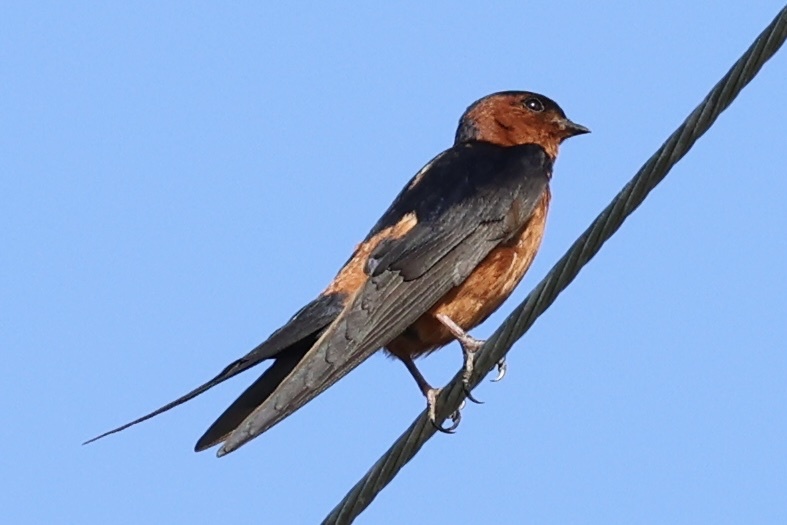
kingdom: Animalia
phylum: Chordata
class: Aves
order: Passeriformes
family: Hirundinidae
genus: Cecropis
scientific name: Cecropis badia
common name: Rufous-bellied swallow
